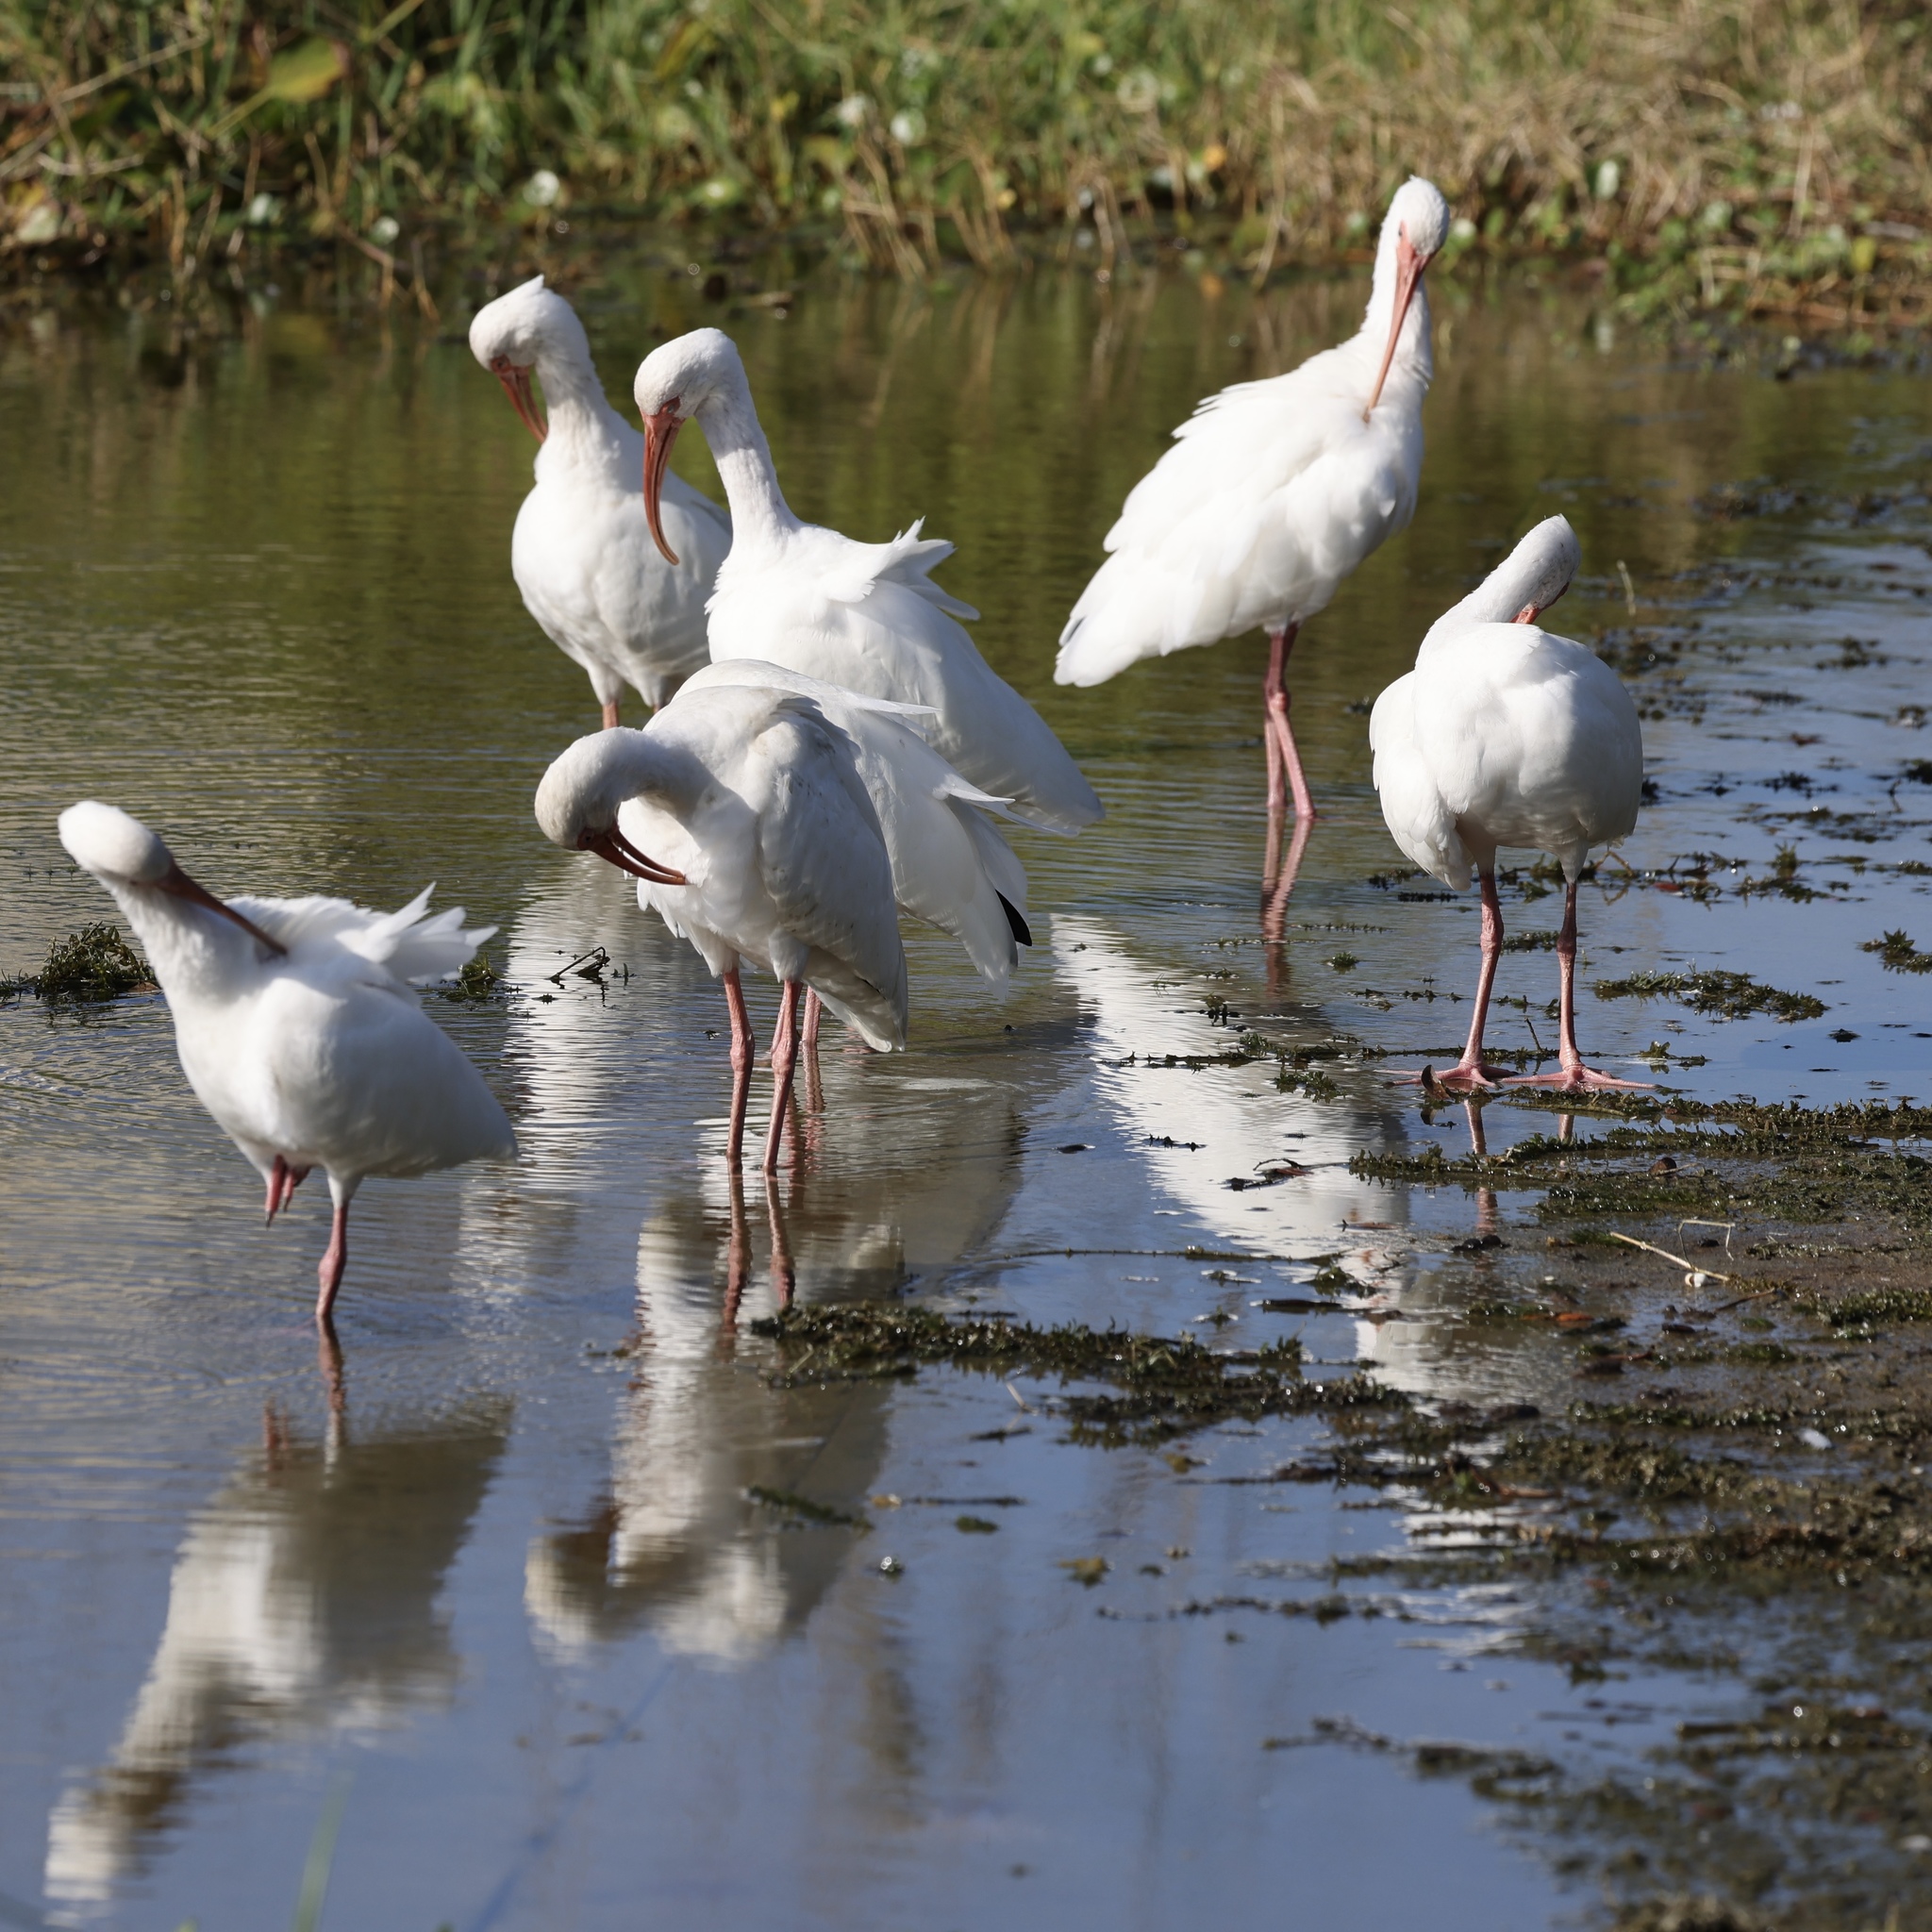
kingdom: Animalia
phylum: Chordata
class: Aves
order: Pelecaniformes
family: Threskiornithidae
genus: Eudocimus
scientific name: Eudocimus albus
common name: White ibis
